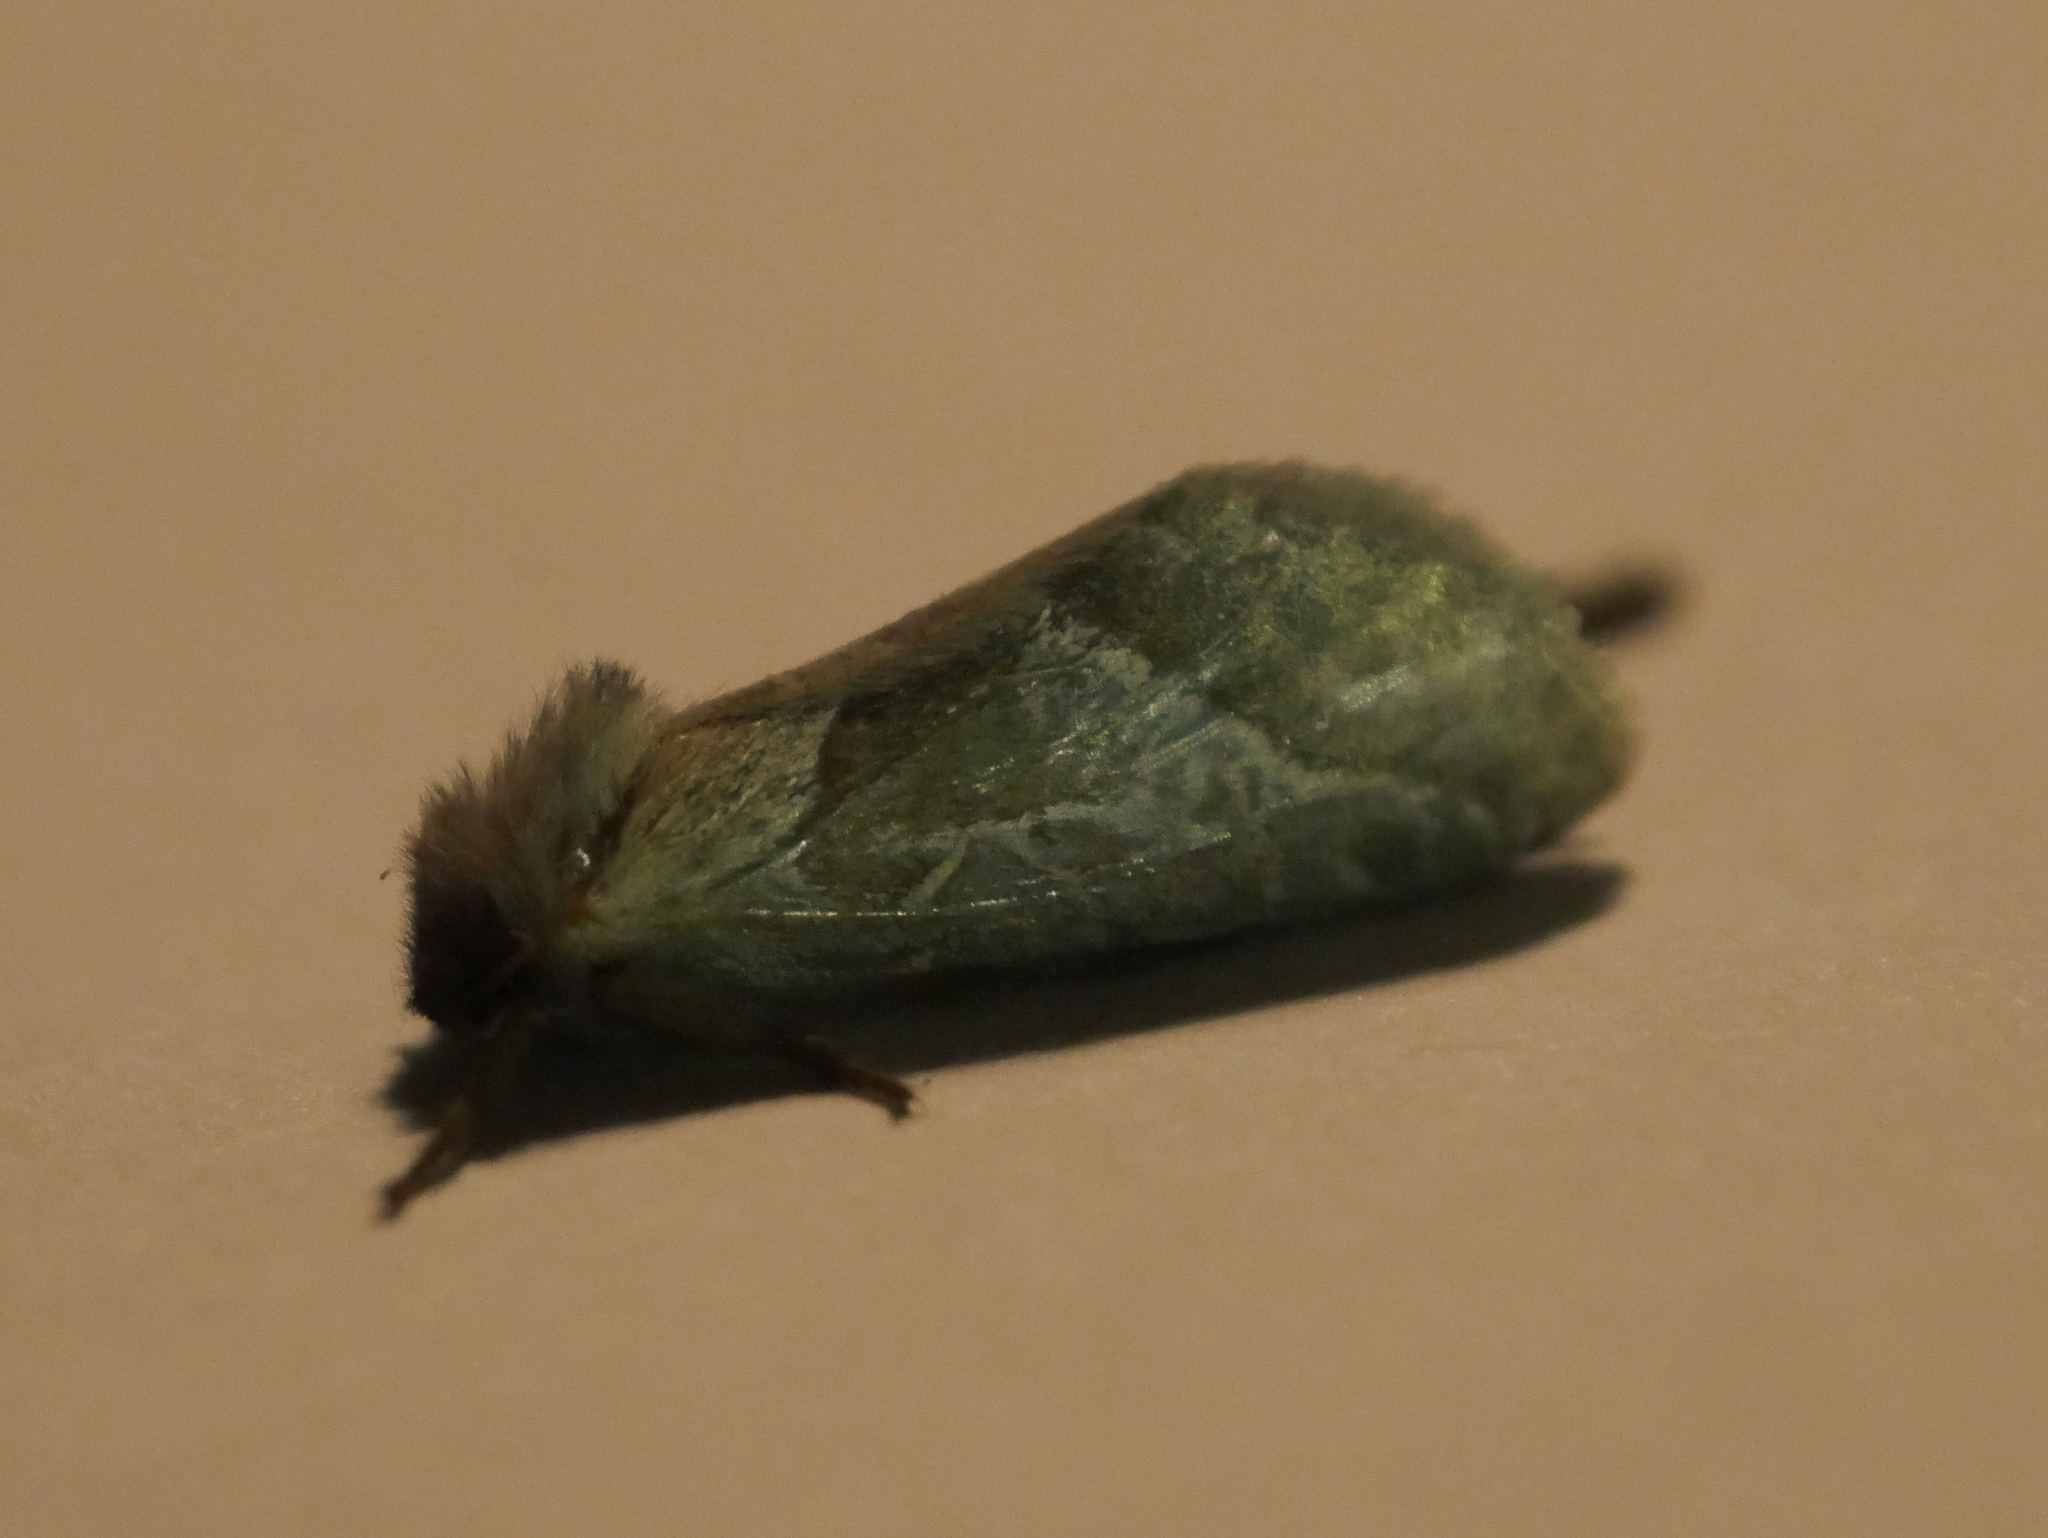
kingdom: Animalia
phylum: Arthropoda
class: Insecta
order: Lepidoptera
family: Hepialidae
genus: Triodia
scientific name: Triodia sylvina
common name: Orange swift
